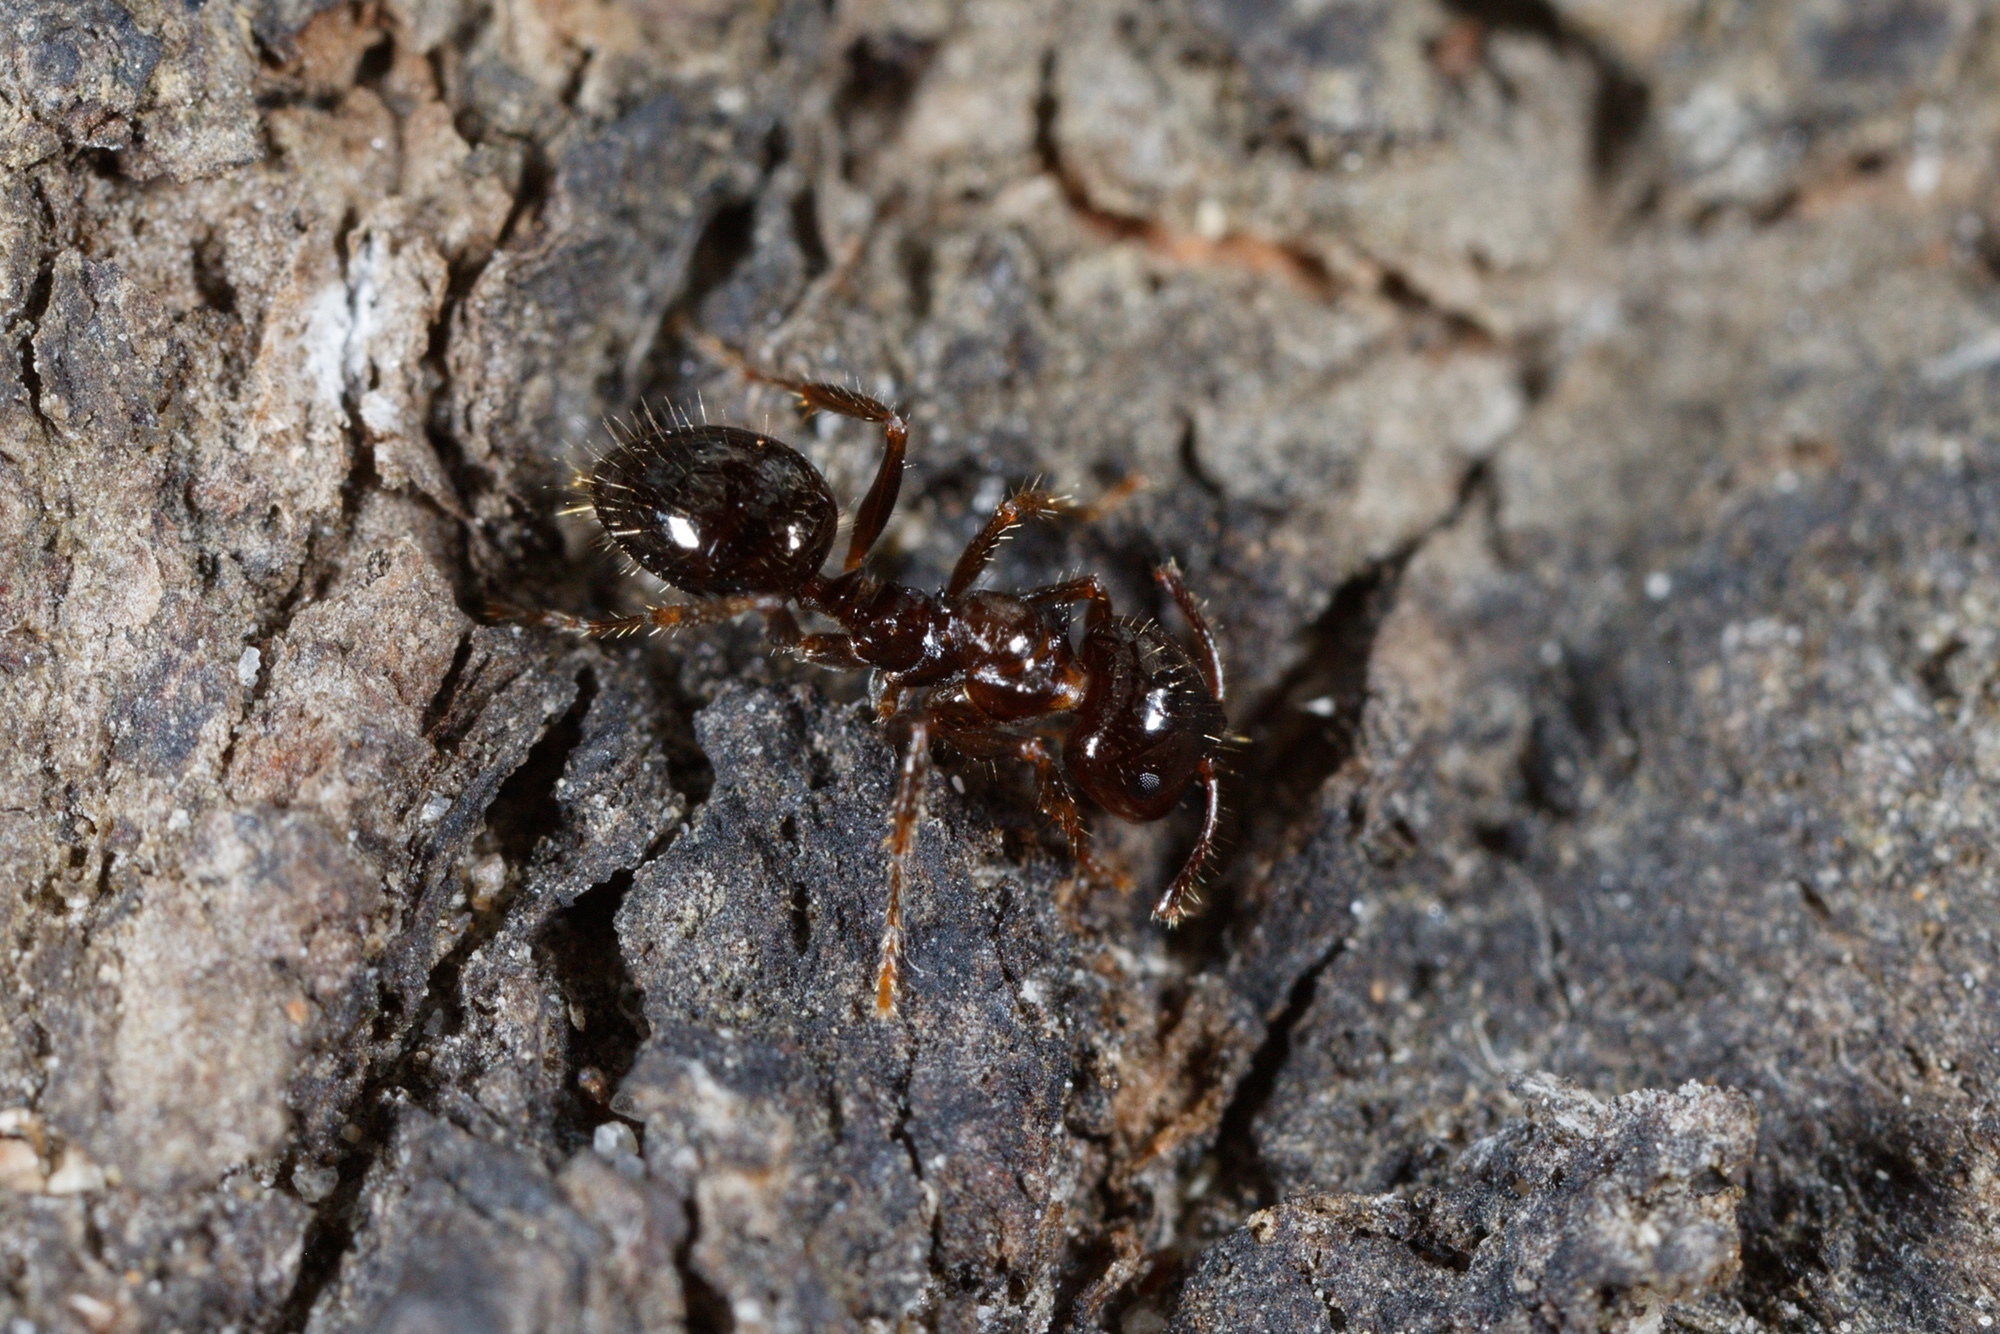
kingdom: Animalia
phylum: Arthropoda
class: Insecta
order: Hymenoptera
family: Formicidae
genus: Notoncus
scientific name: Notoncus ectatommoides
